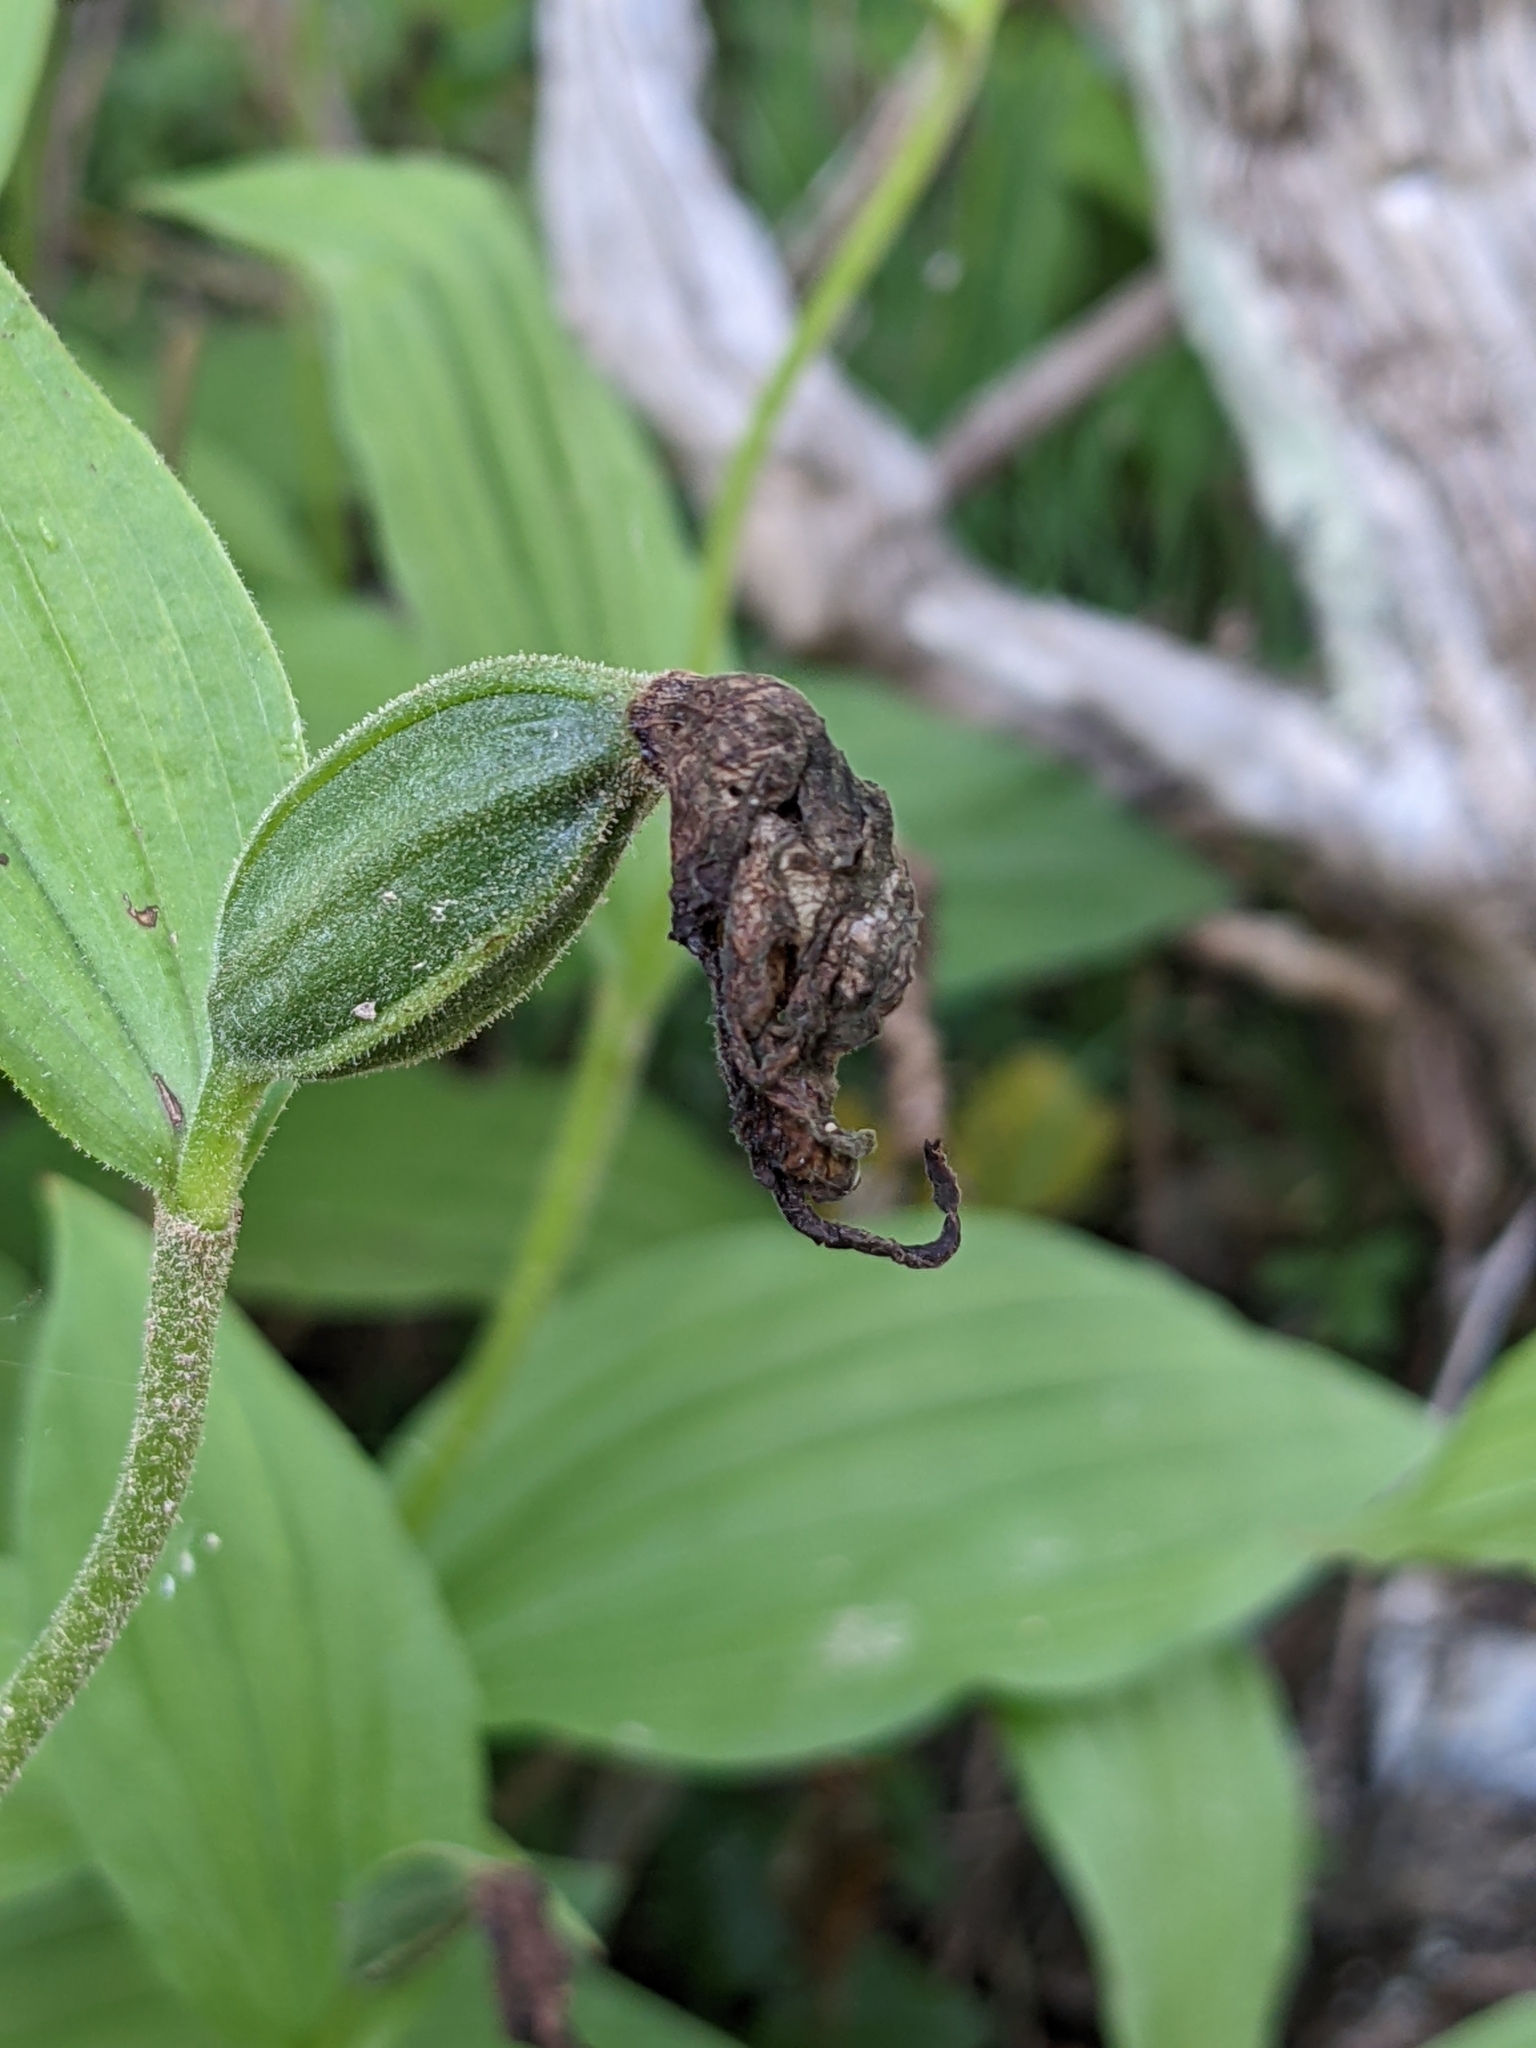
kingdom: Plantae
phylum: Tracheophyta
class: Liliopsida
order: Asparagales
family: Orchidaceae
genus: Cypripedium
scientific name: Cypripedium calceolus
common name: Lady's-slipper
